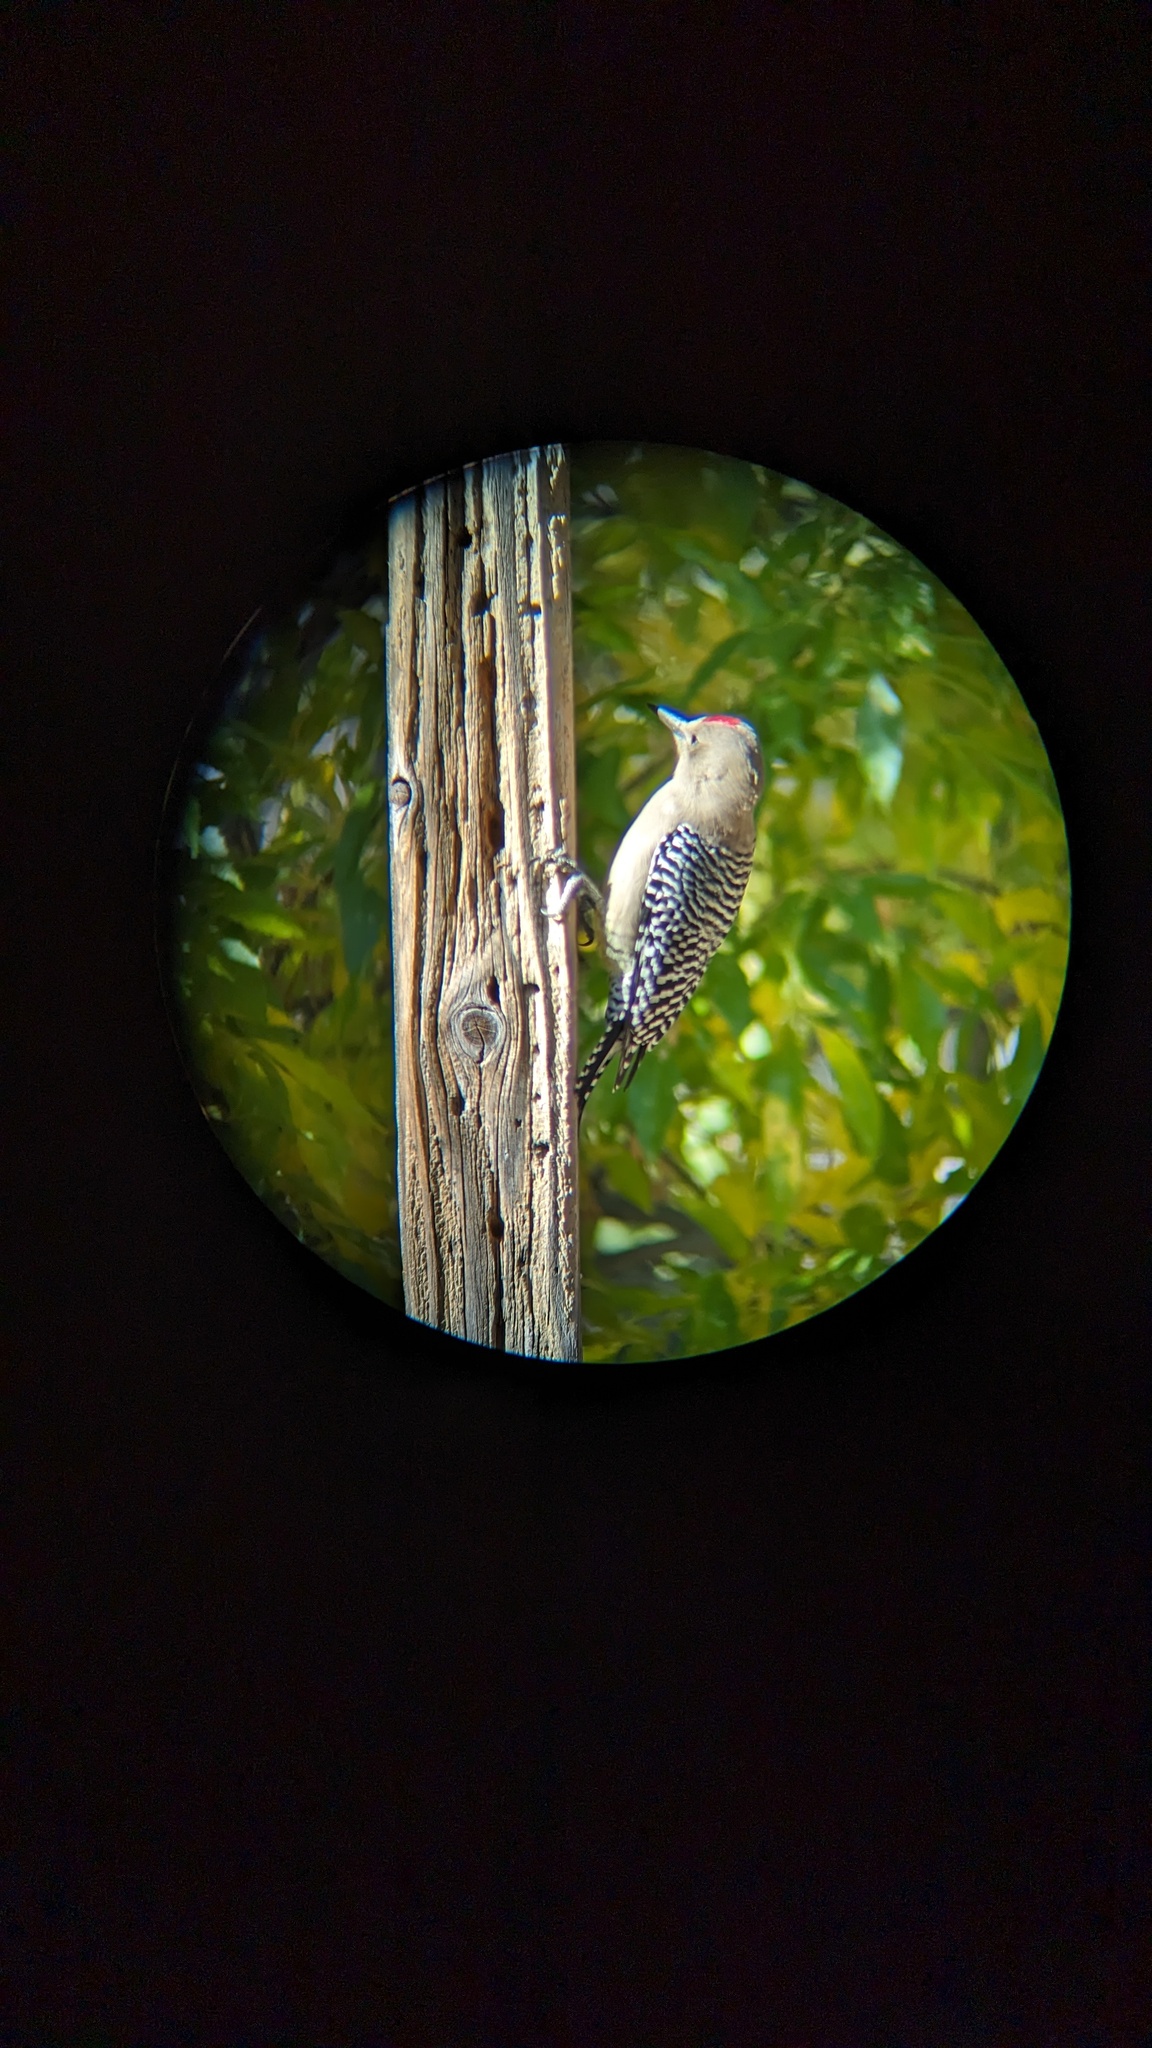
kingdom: Animalia
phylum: Chordata
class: Aves
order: Piciformes
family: Picidae
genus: Melanerpes
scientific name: Melanerpes uropygialis
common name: Gila woodpecker
